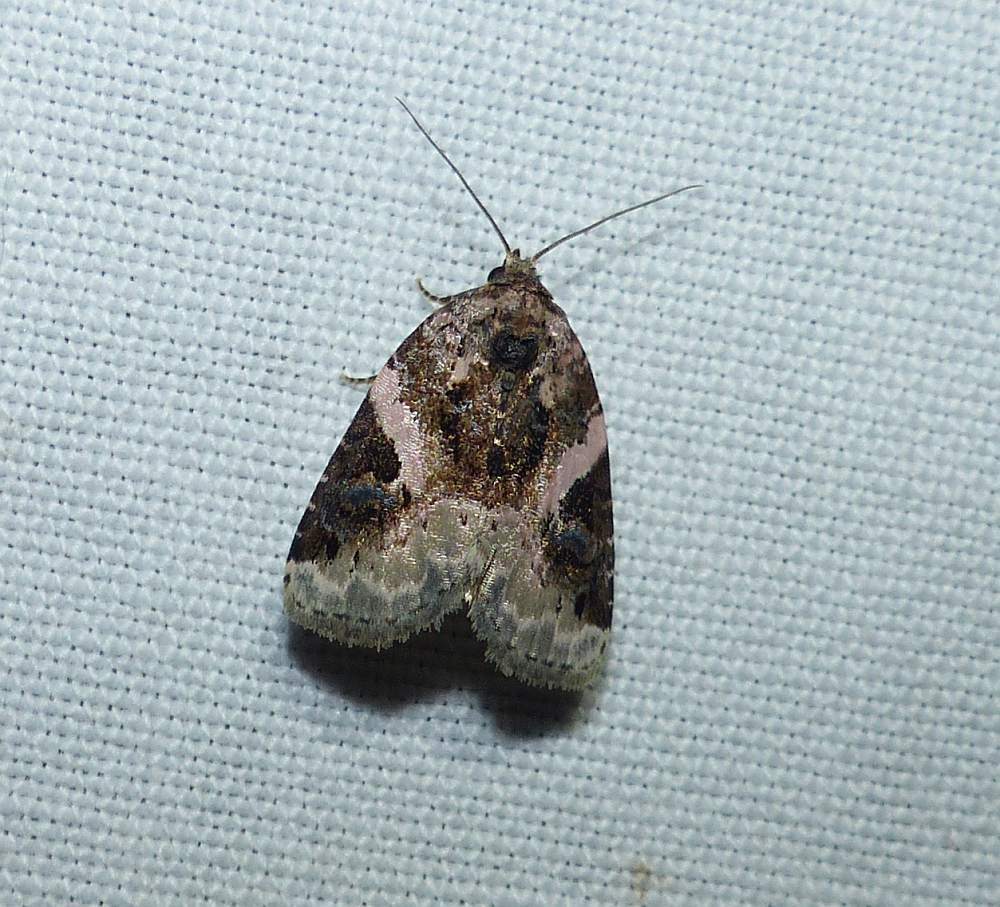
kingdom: Animalia
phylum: Arthropoda
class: Insecta
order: Lepidoptera
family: Noctuidae
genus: Pseudeustrotia
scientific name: Pseudeustrotia carneola
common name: Pink-barred lithacodia moth
